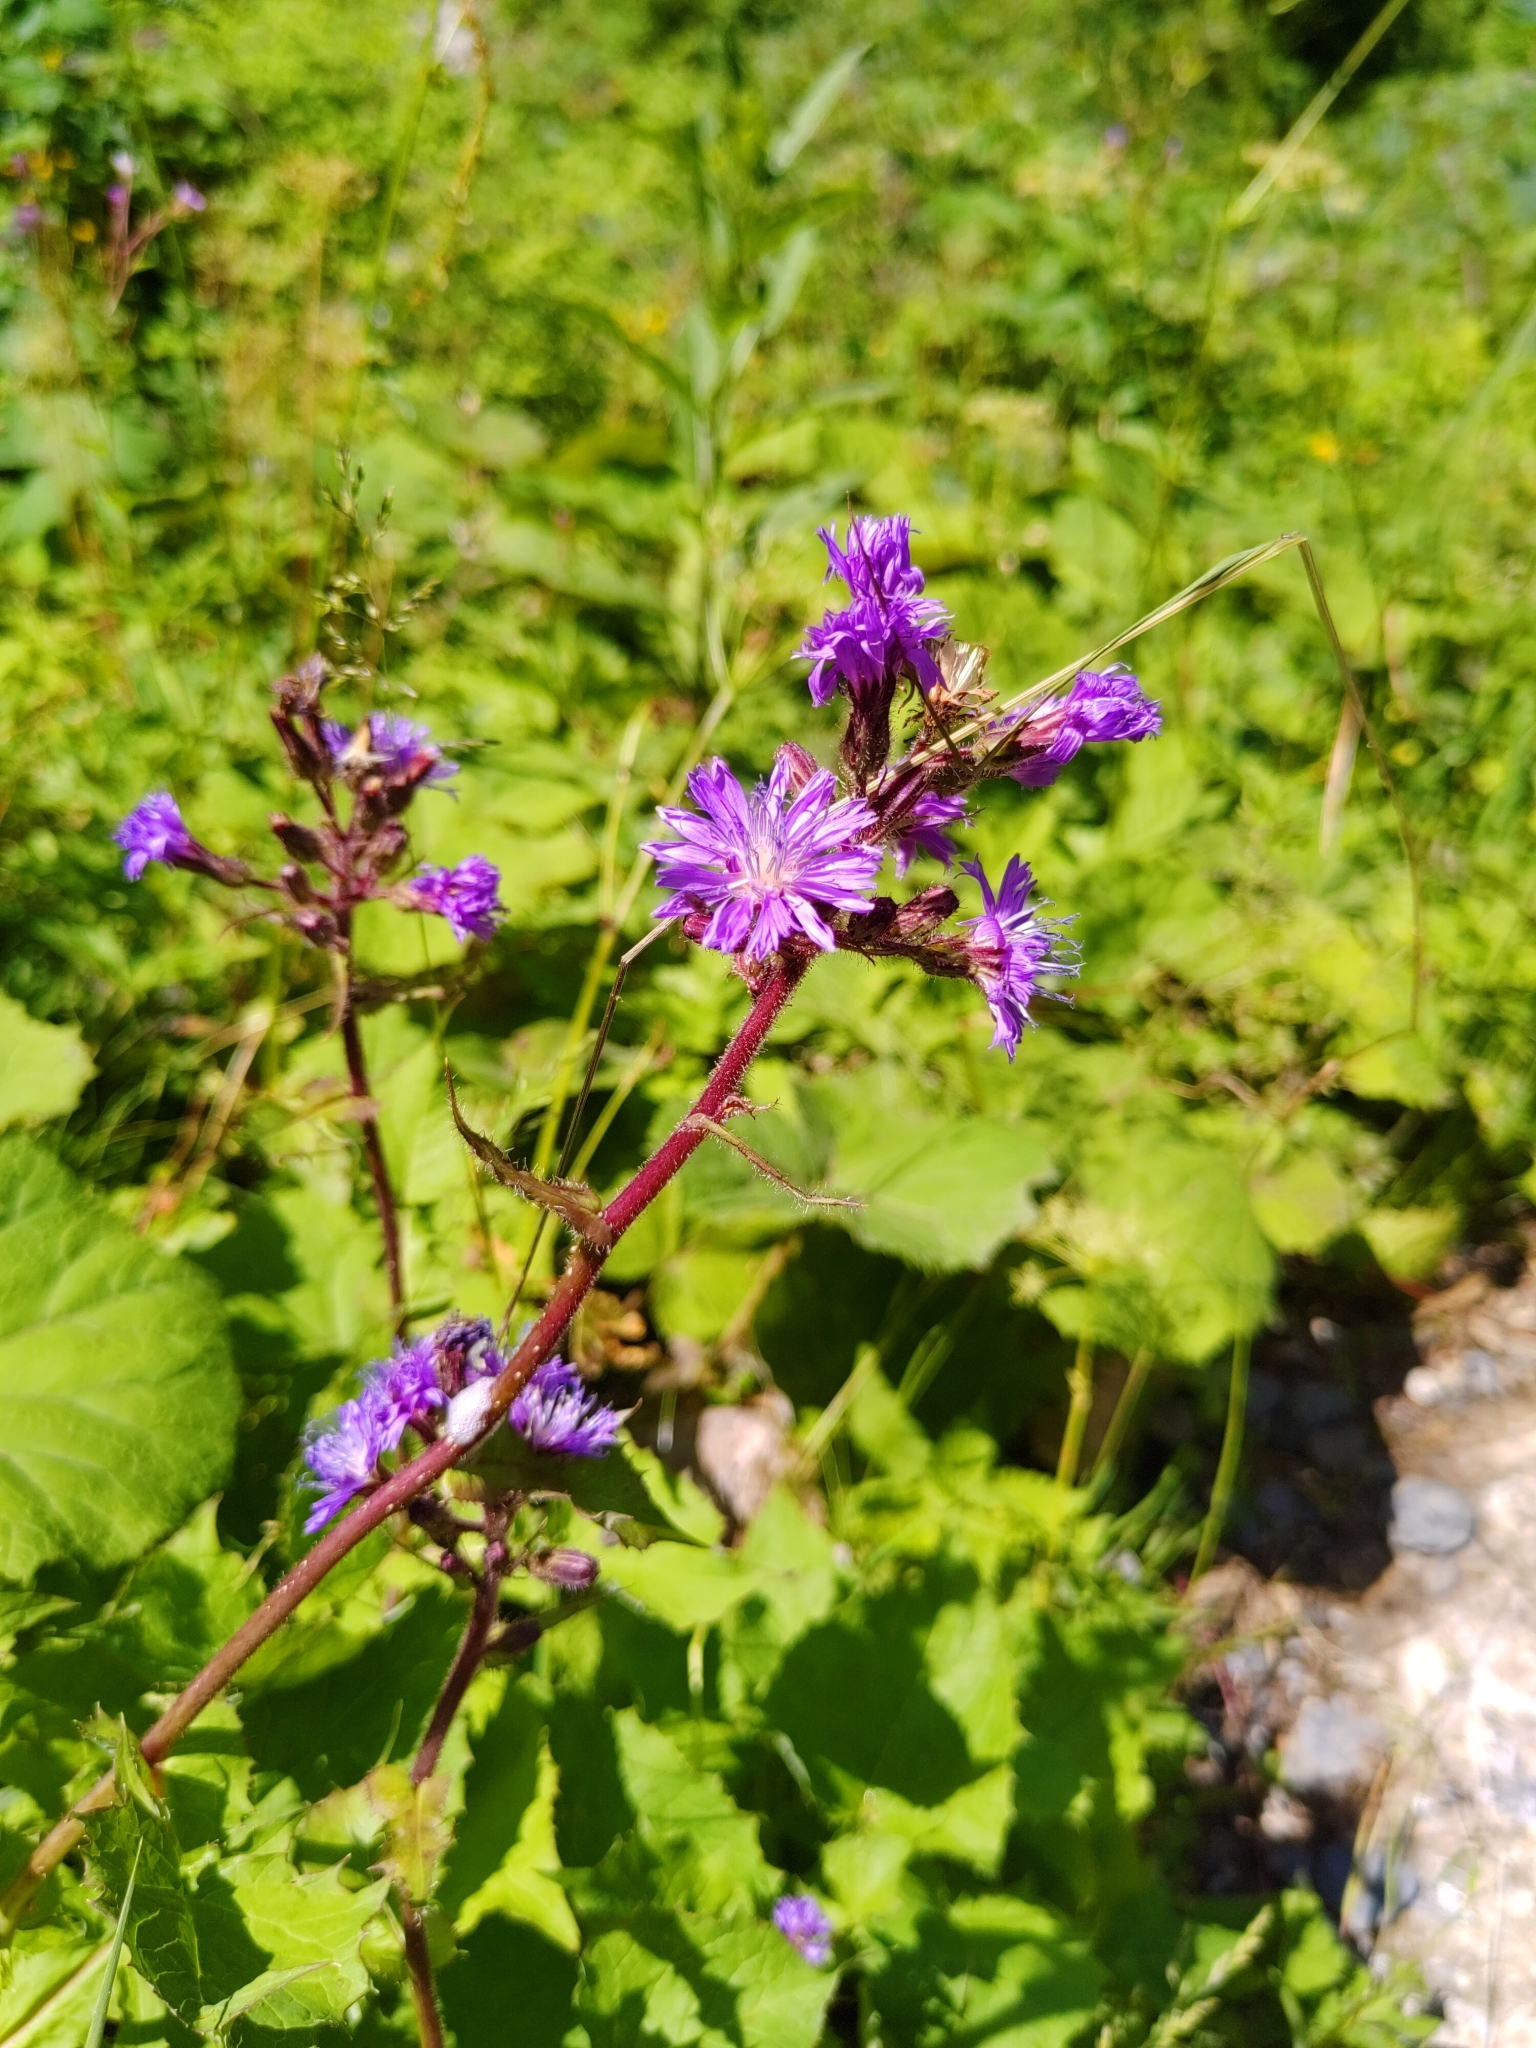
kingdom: Plantae
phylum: Tracheophyta
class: Magnoliopsida
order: Asterales
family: Asteraceae
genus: Cicerbita
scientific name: Cicerbita alpina
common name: Alpine blue-sow-thistle
